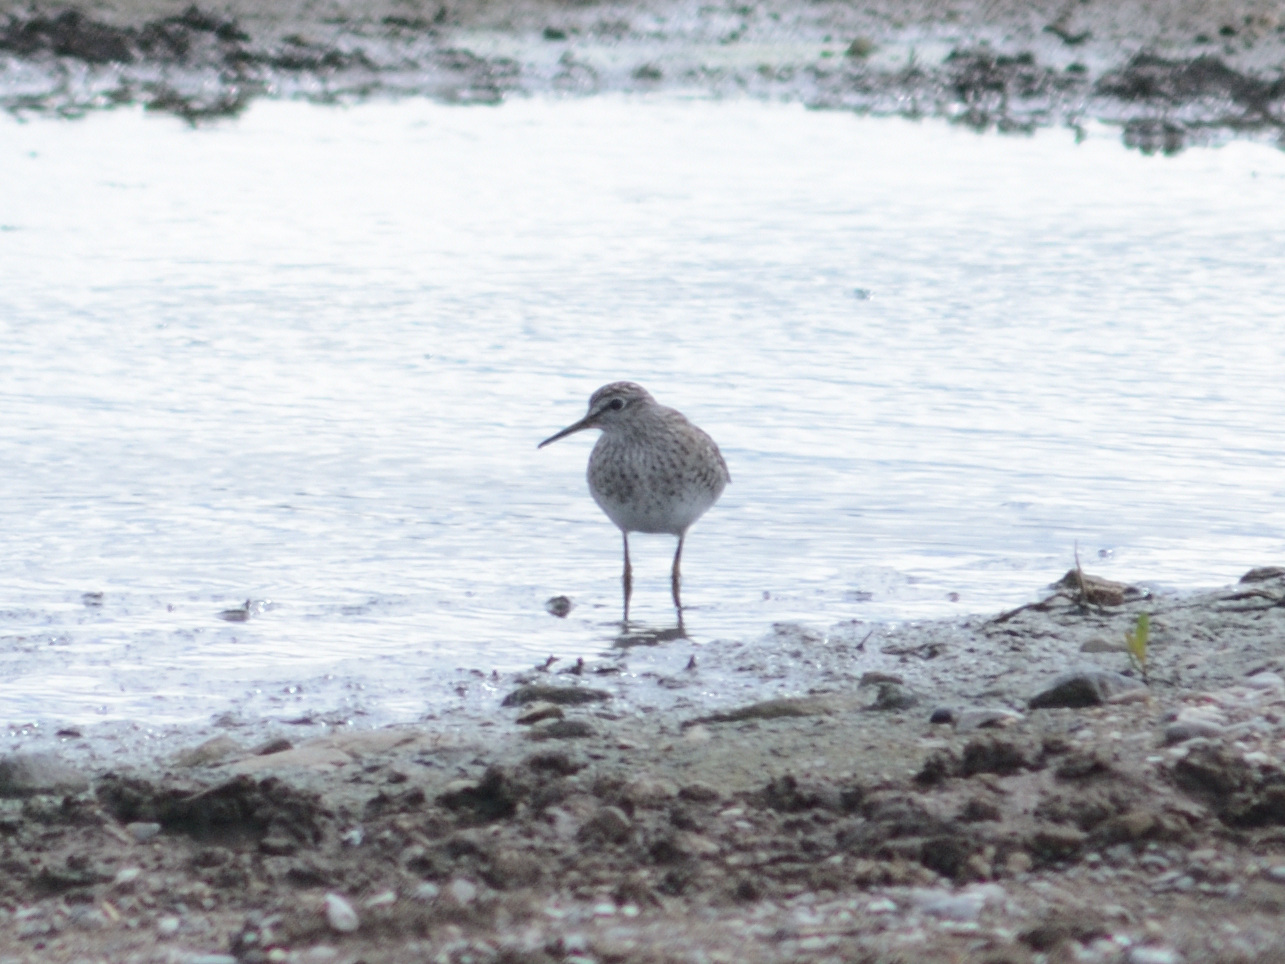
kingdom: Animalia
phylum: Chordata
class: Aves
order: Charadriiformes
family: Scolopacidae
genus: Tringa
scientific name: Tringa glareola
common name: Wood sandpiper
